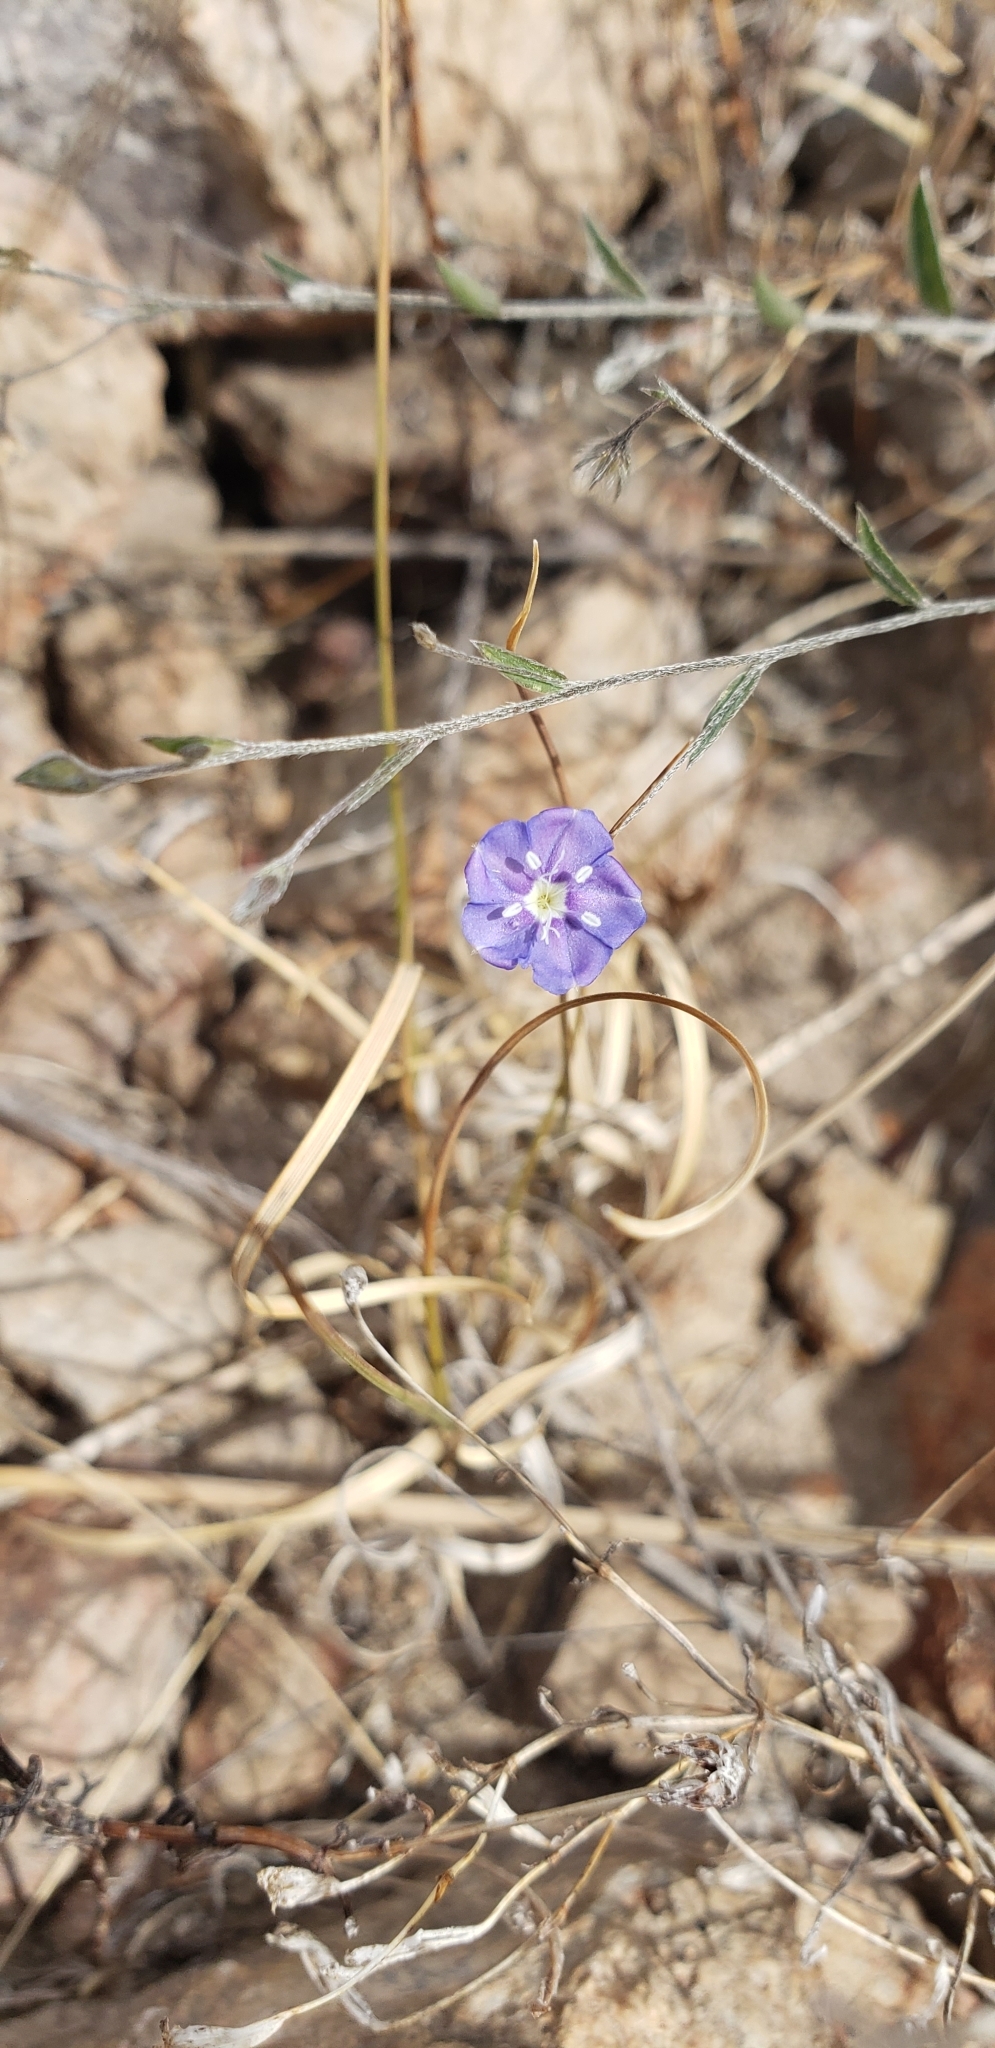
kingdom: Plantae
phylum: Tracheophyta
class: Magnoliopsida
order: Solanales
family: Convolvulaceae
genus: Evolvulus
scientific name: Evolvulus alsinoides
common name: Slender dwarf morning-glory
